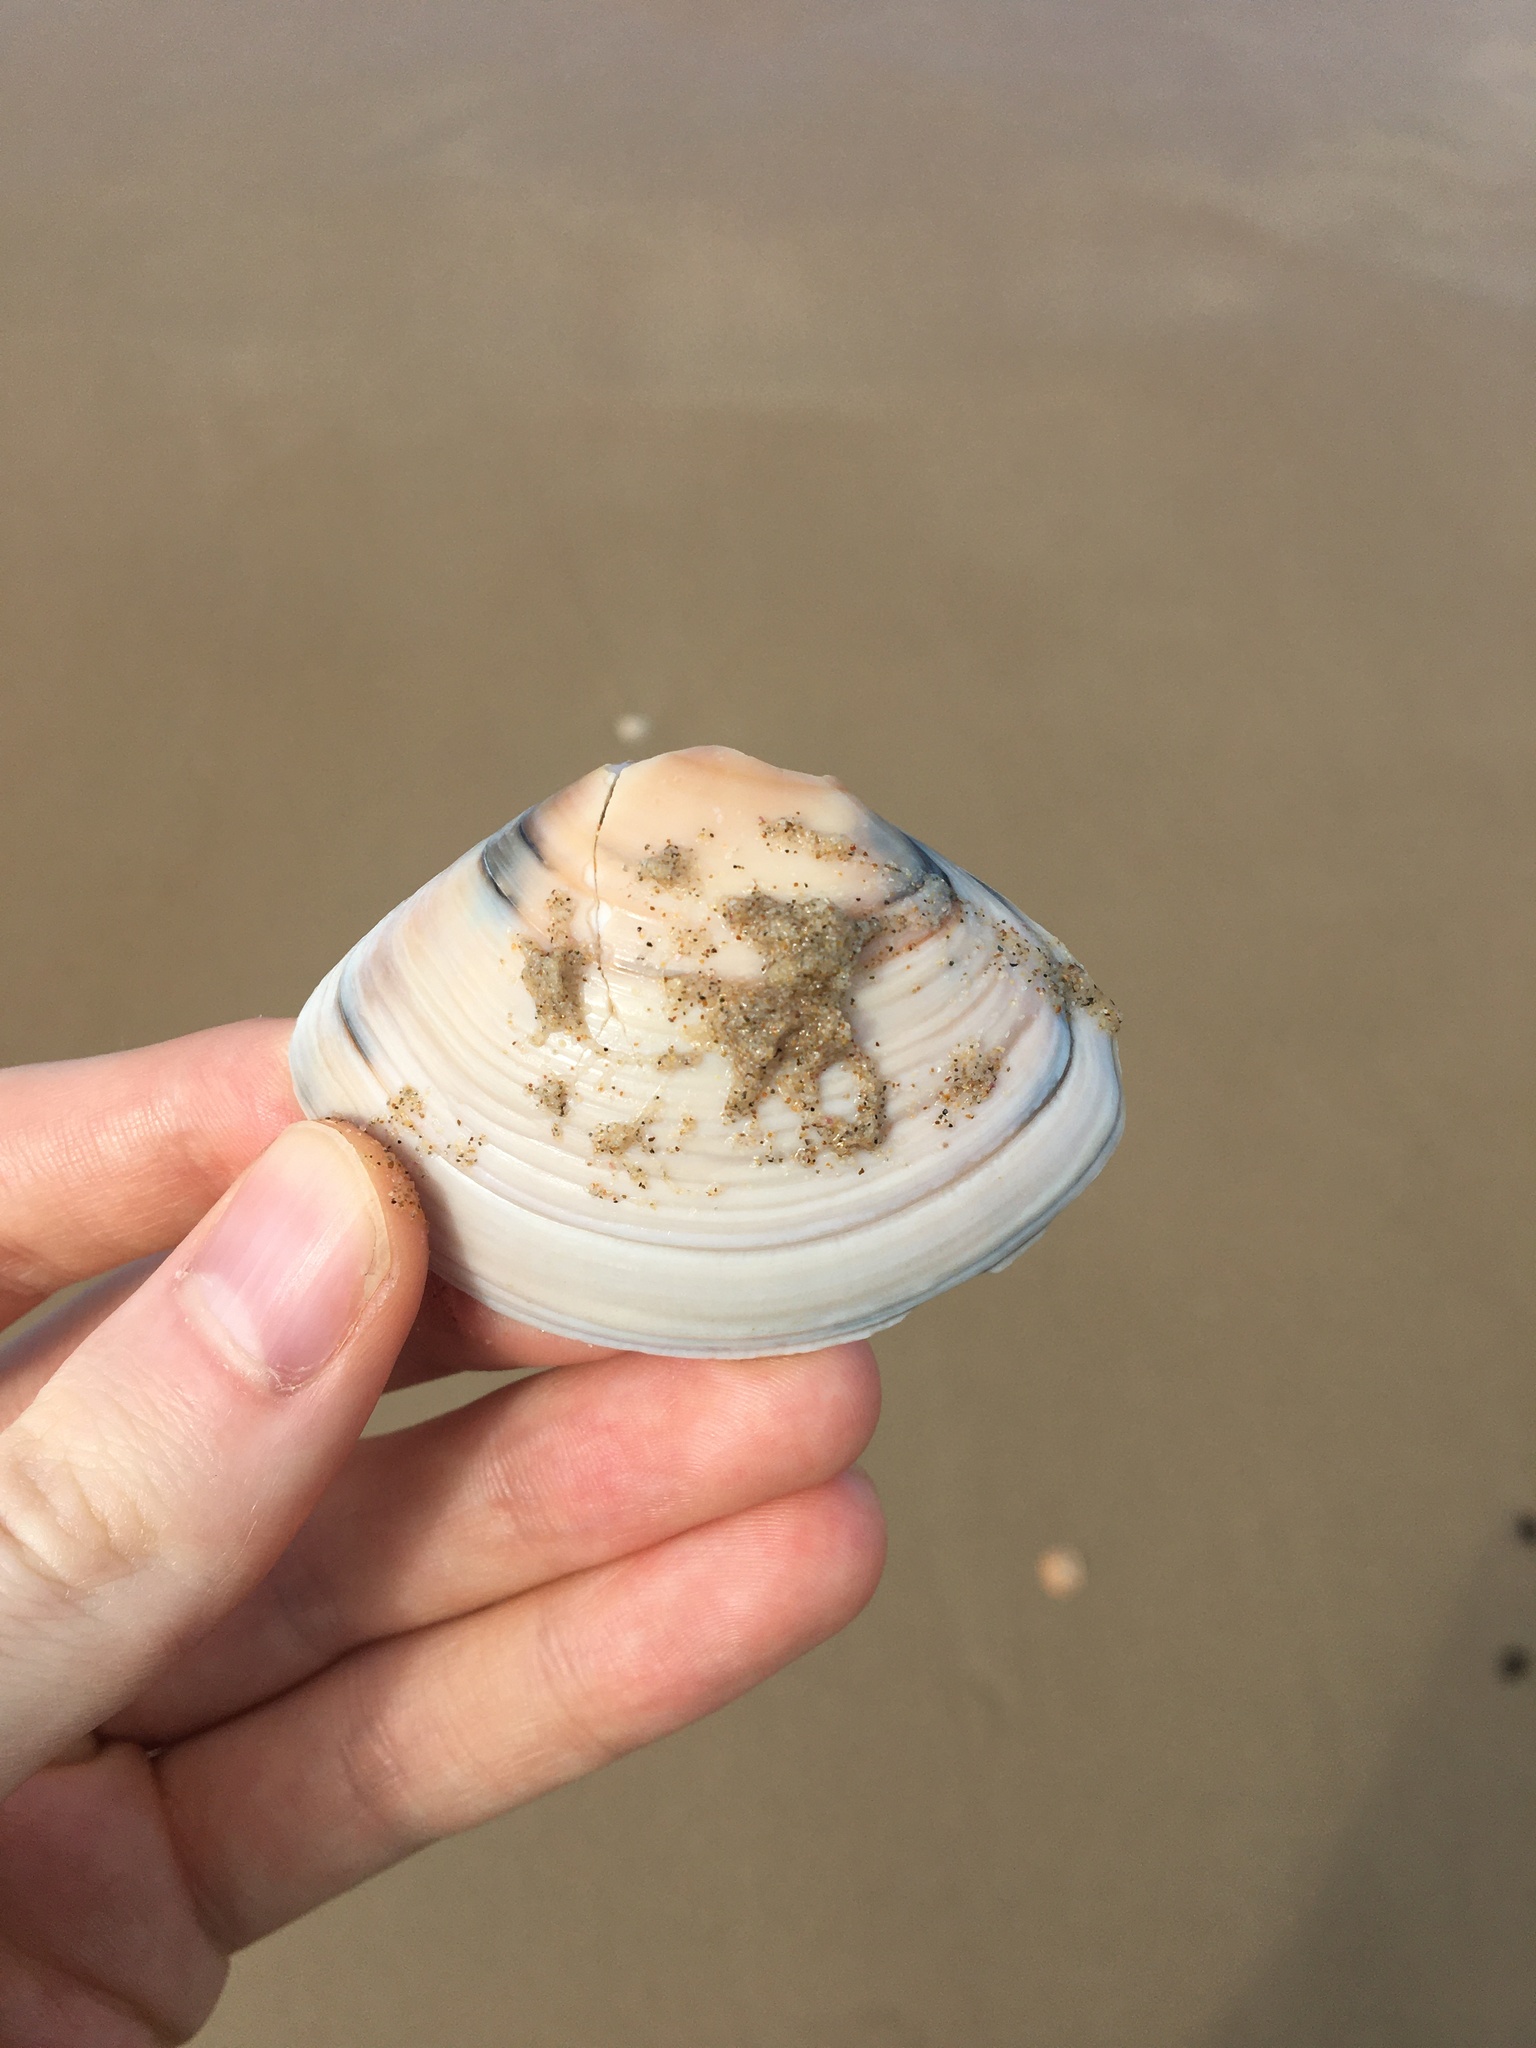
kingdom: Animalia
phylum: Mollusca
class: Bivalvia
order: Venerida
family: Mactridae
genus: Austromactra
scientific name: Austromactra rufescens
